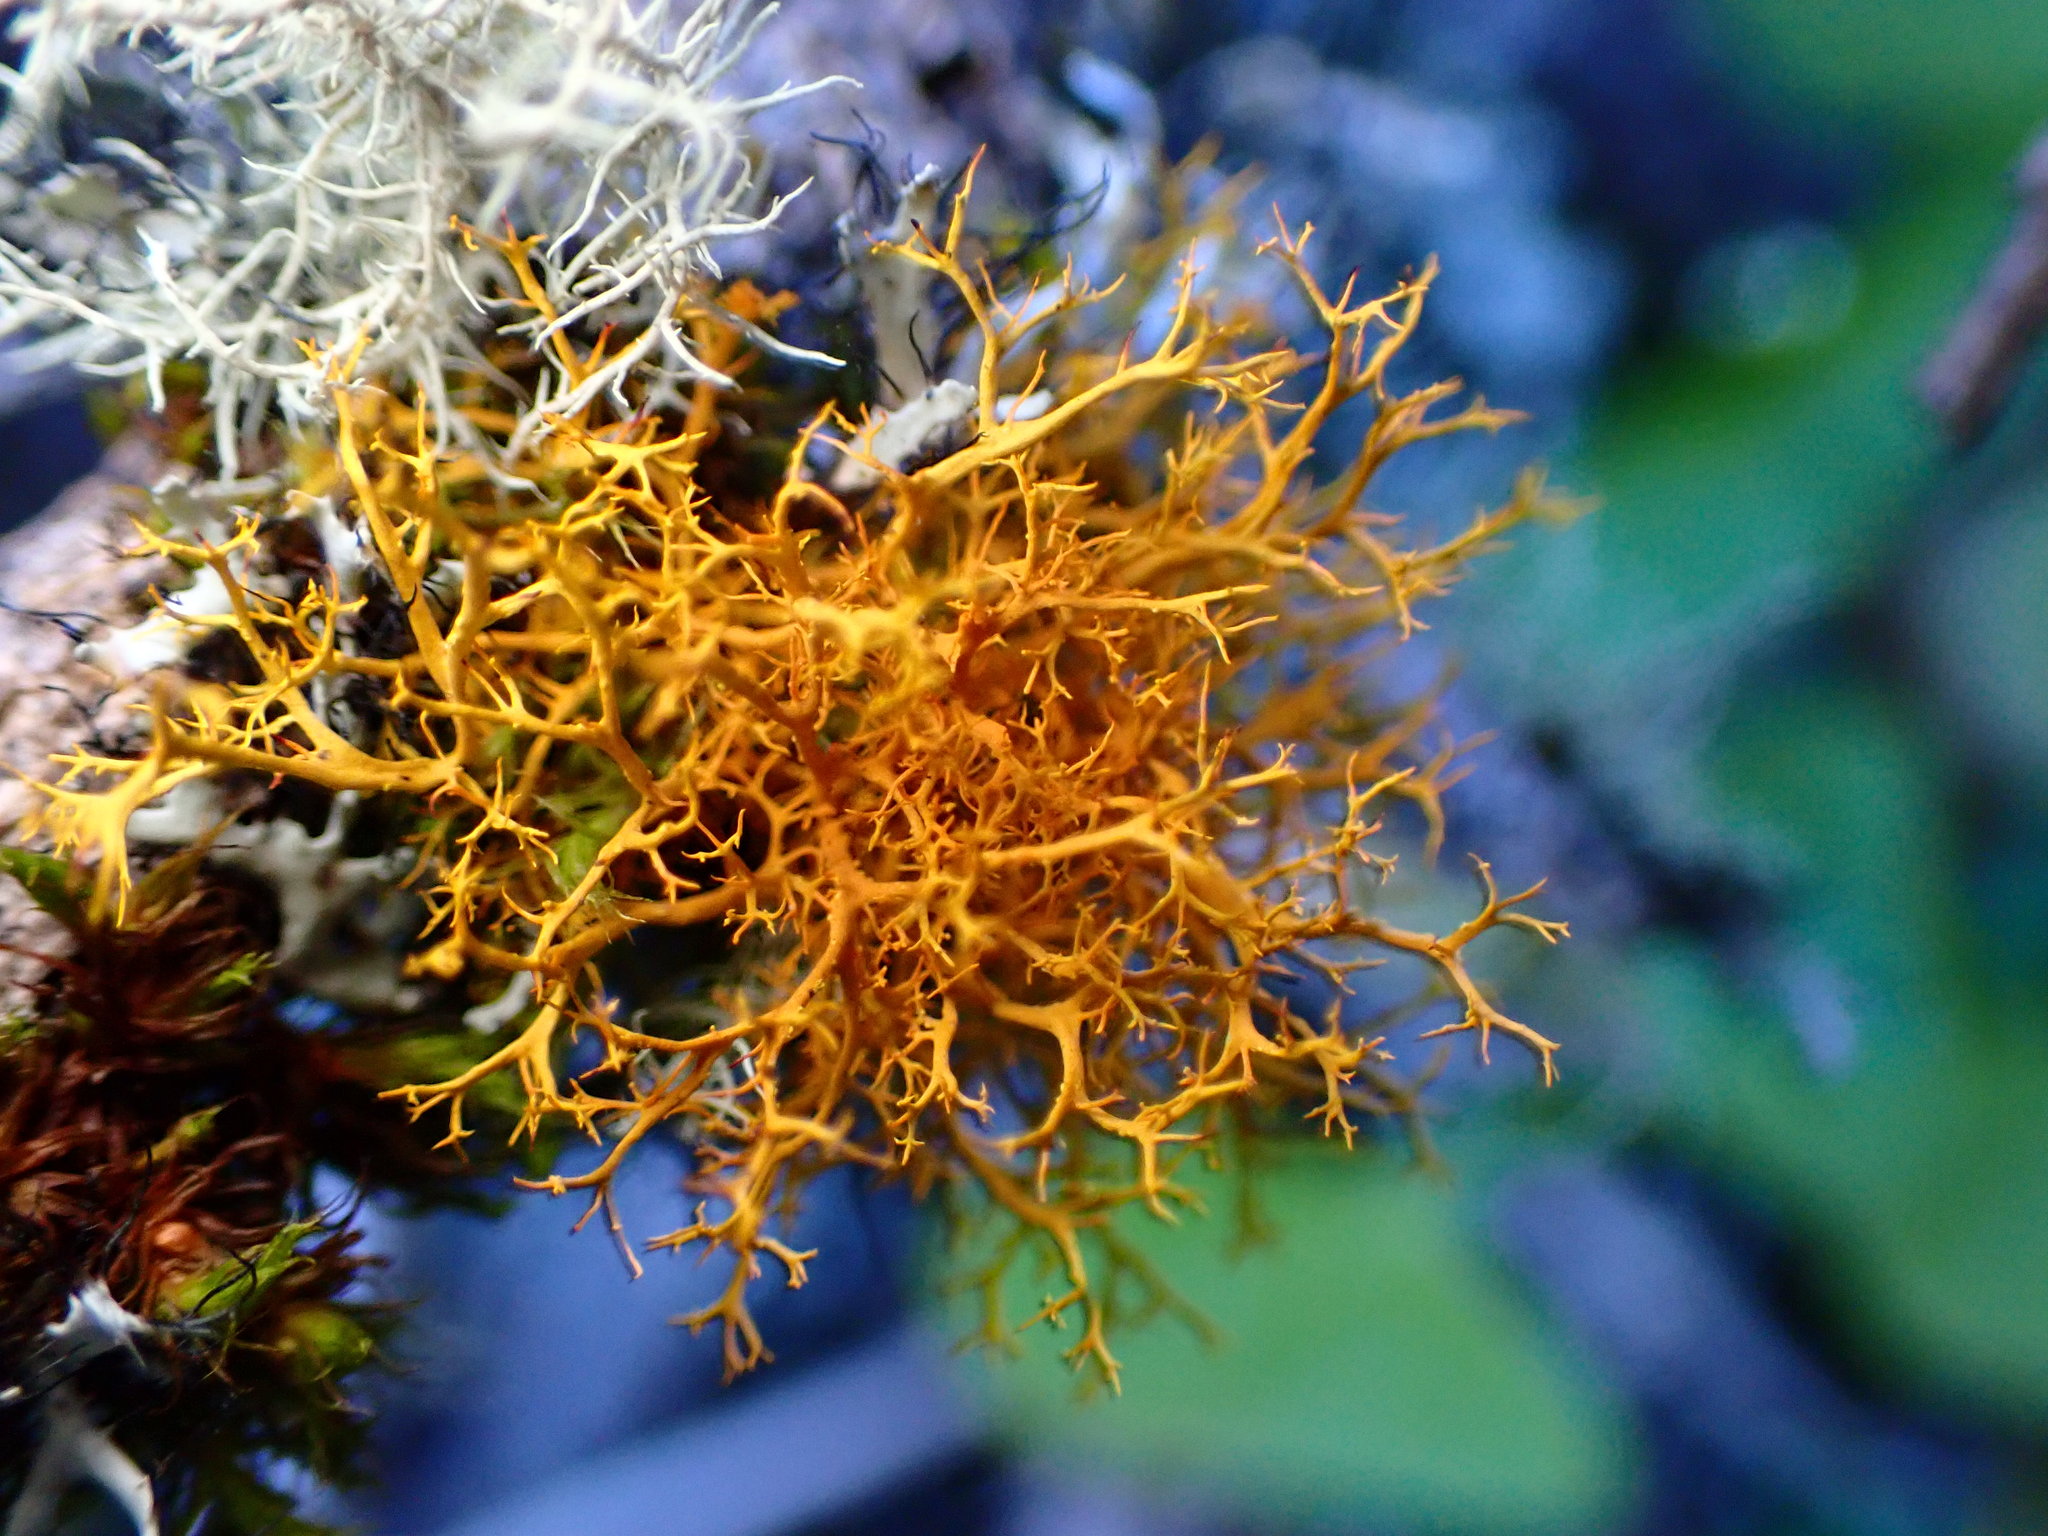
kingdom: Fungi
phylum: Ascomycota
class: Lecanoromycetes
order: Teloschistales
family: Teloschistaceae
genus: Teloschistes
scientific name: Teloschistes flavicans
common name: Golden hair-lichen
